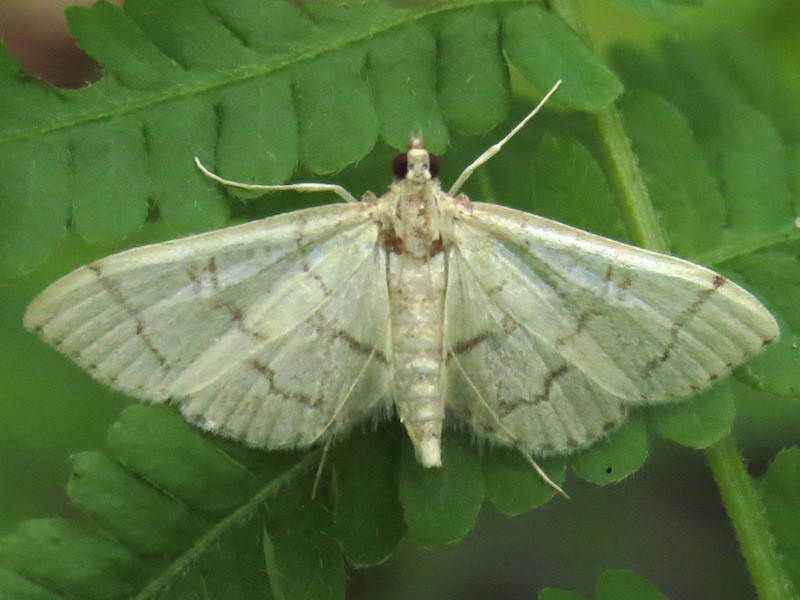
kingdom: Animalia
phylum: Arthropoda
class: Insecta
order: Lepidoptera
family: Crambidae
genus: Lamprosema
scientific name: Lamprosema Blepharomastix ranalis
